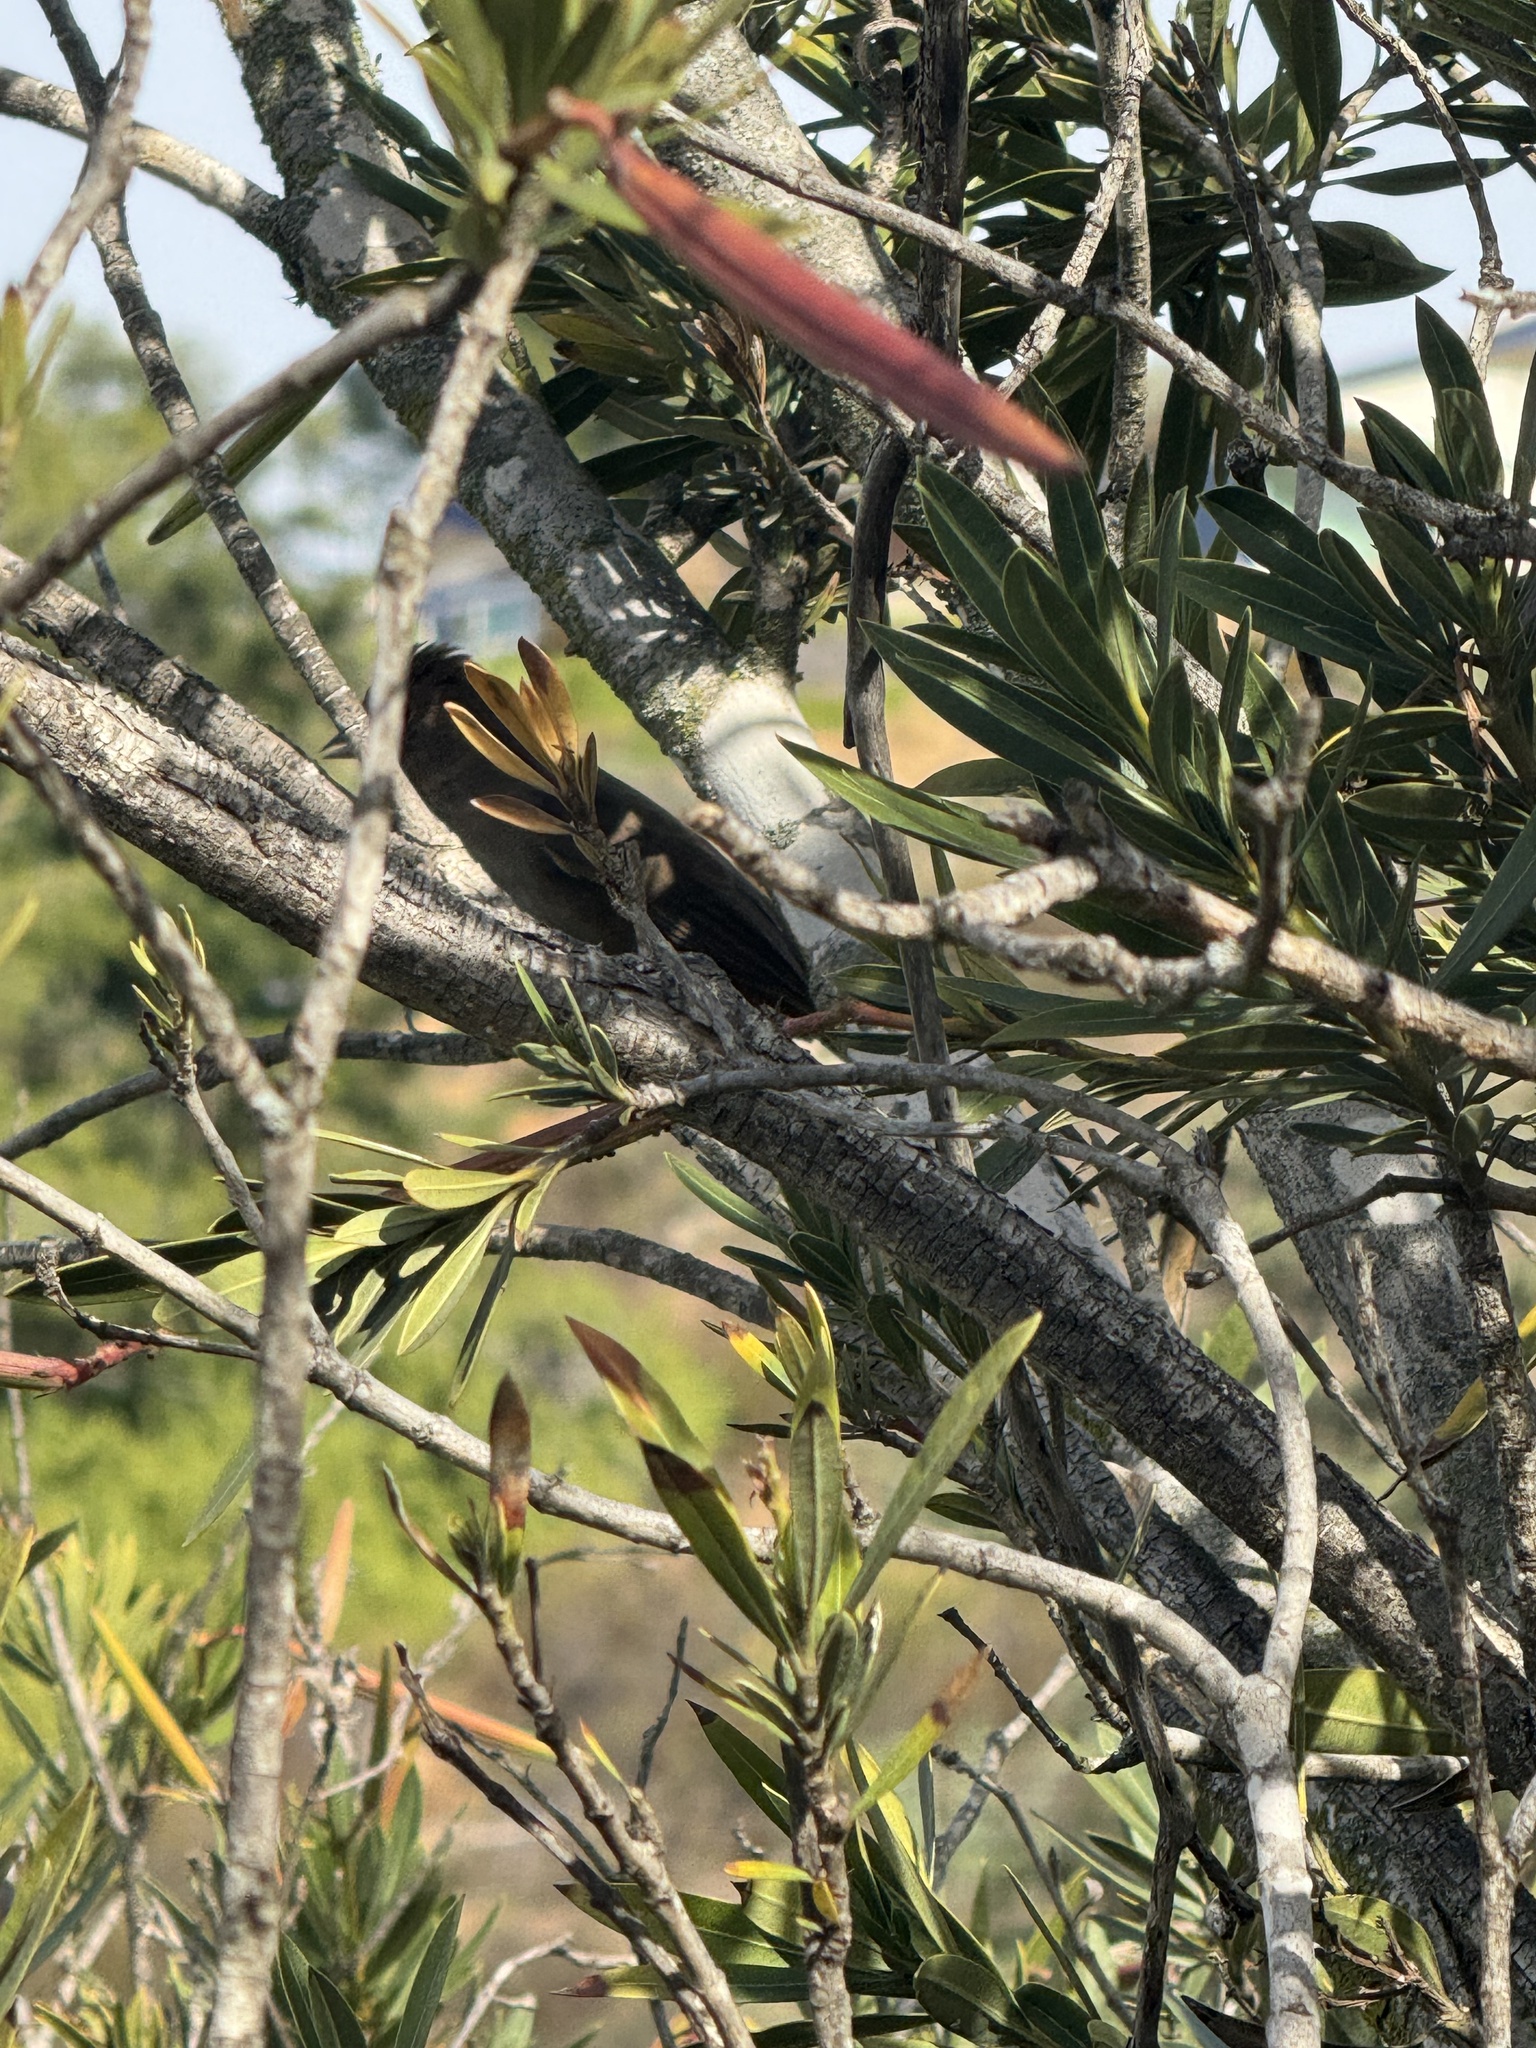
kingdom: Animalia
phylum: Chordata
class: Aves
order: Passeriformes
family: Passerellidae
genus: Melozone
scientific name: Melozone crissalis
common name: California towhee
